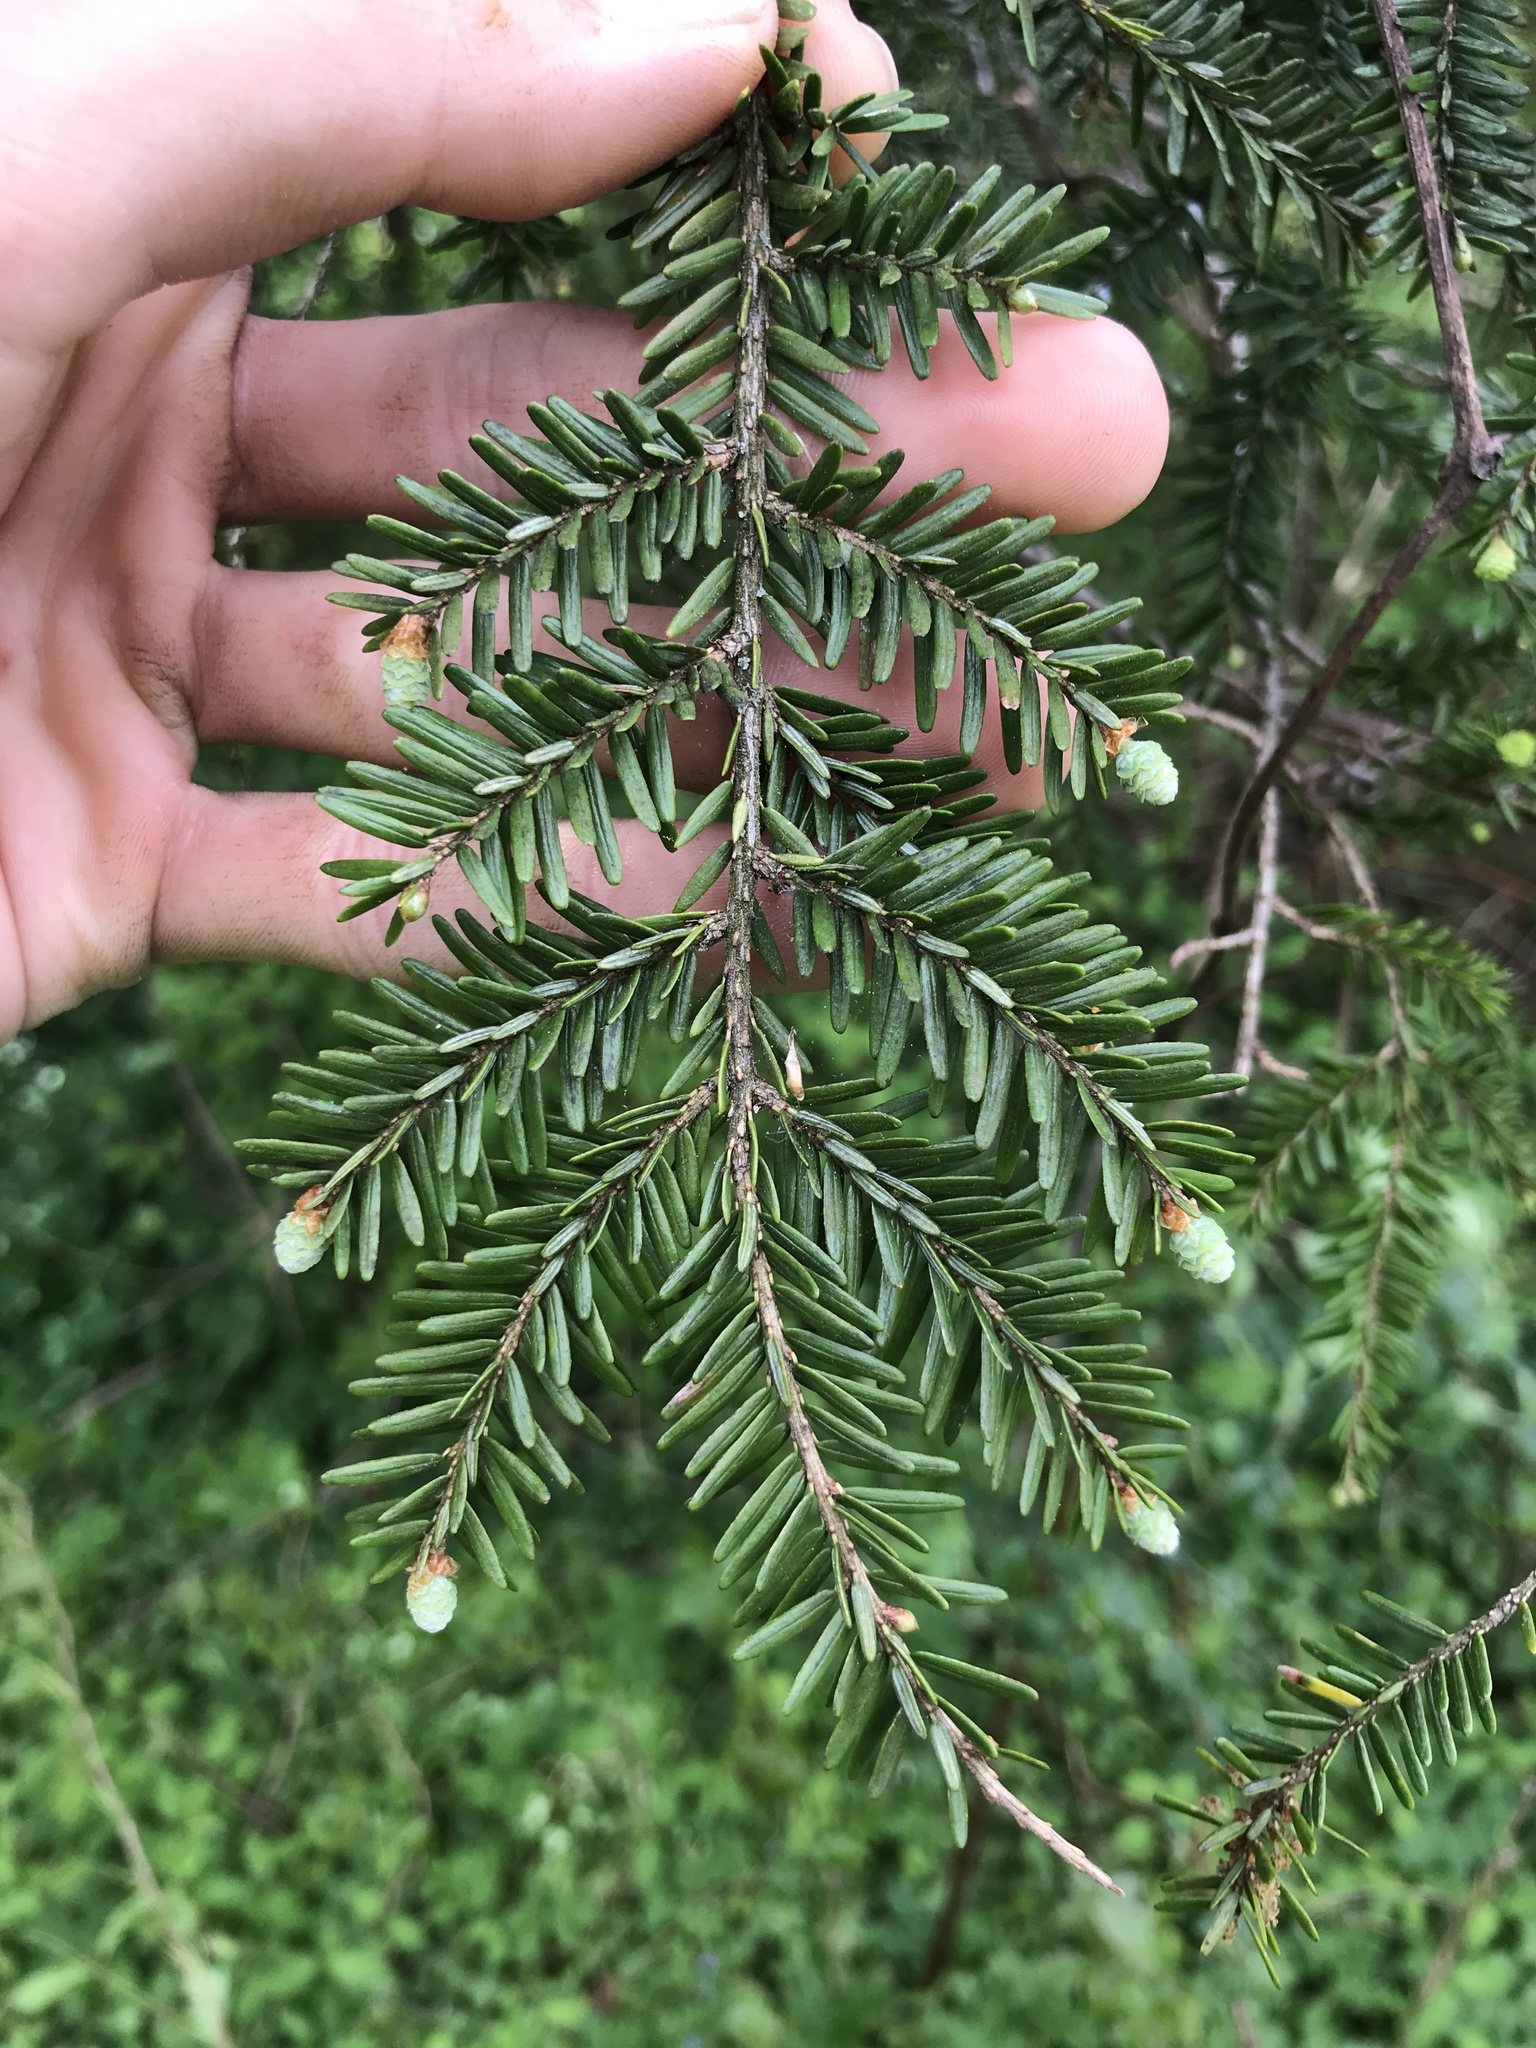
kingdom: Plantae
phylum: Tracheophyta
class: Pinopsida
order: Pinales
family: Pinaceae
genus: Tsuga
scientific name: Tsuga canadensis
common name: Eastern hemlock
